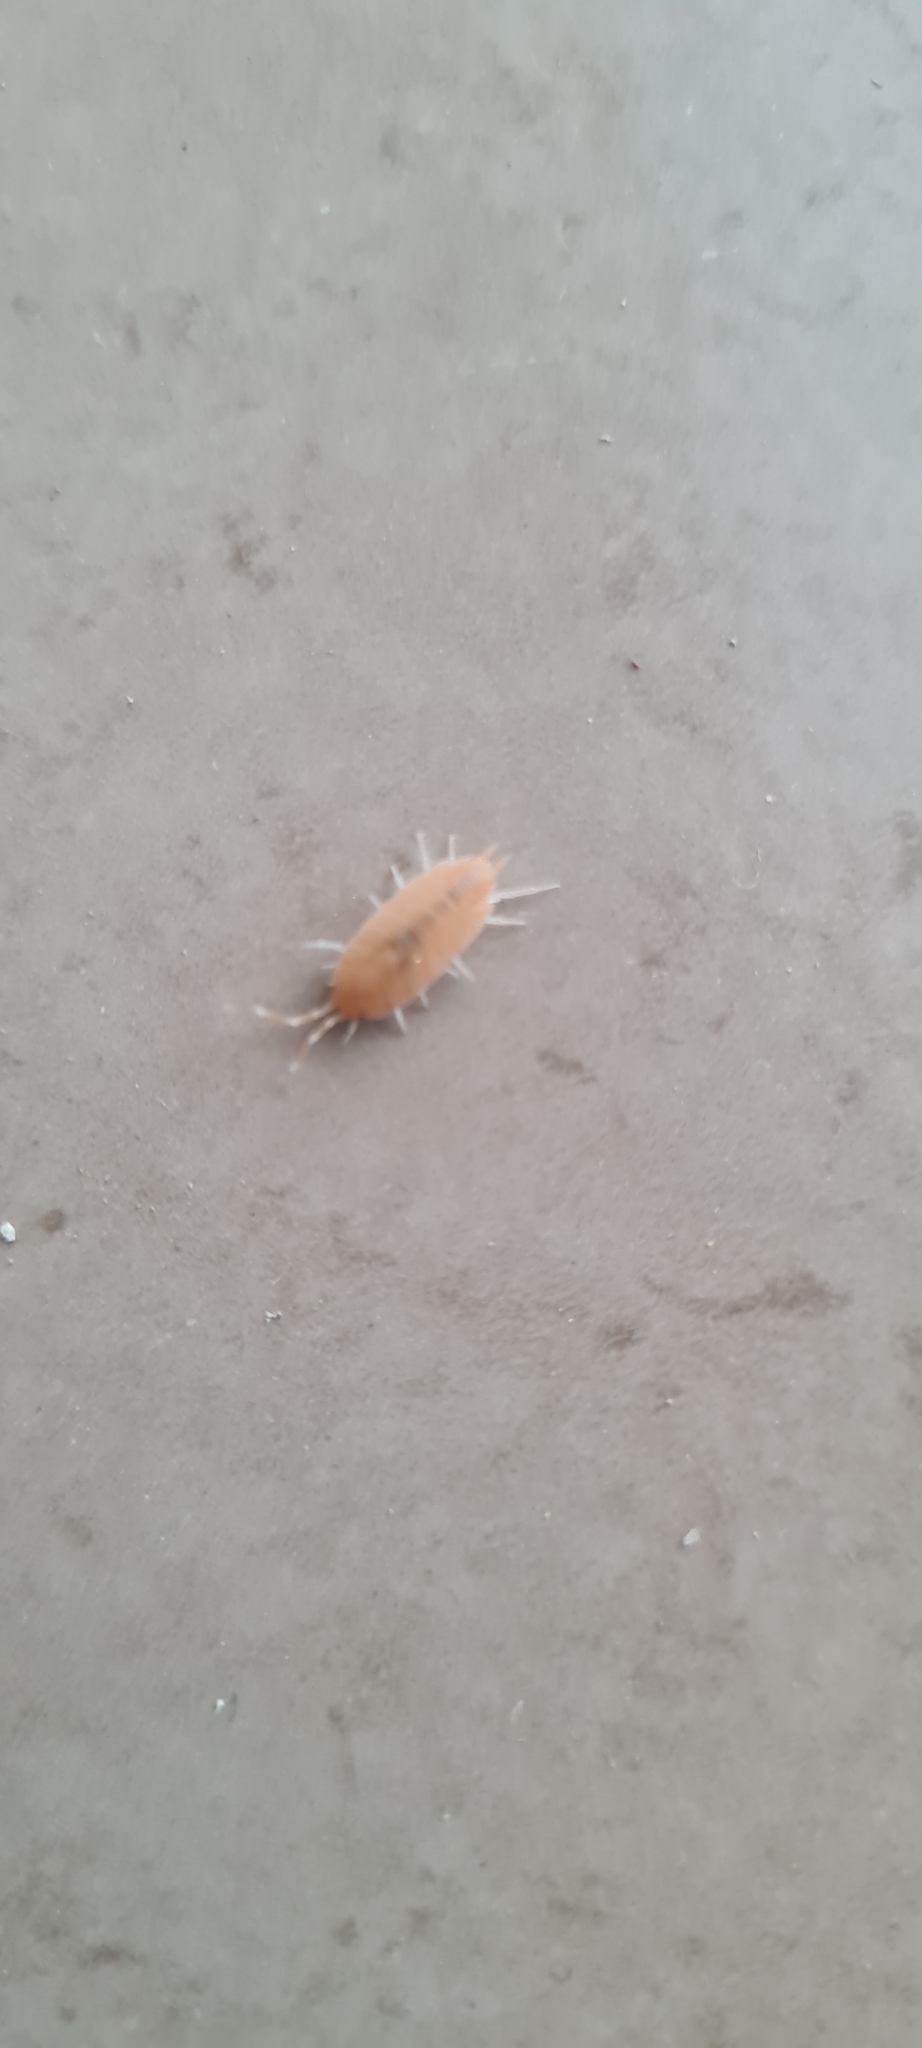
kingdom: Animalia
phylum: Arthropoda
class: Malacostraca
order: Isopoda
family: Porcellionidae
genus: Porcellionides
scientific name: Porcellionides pruinosus
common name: Plum woodlouse
